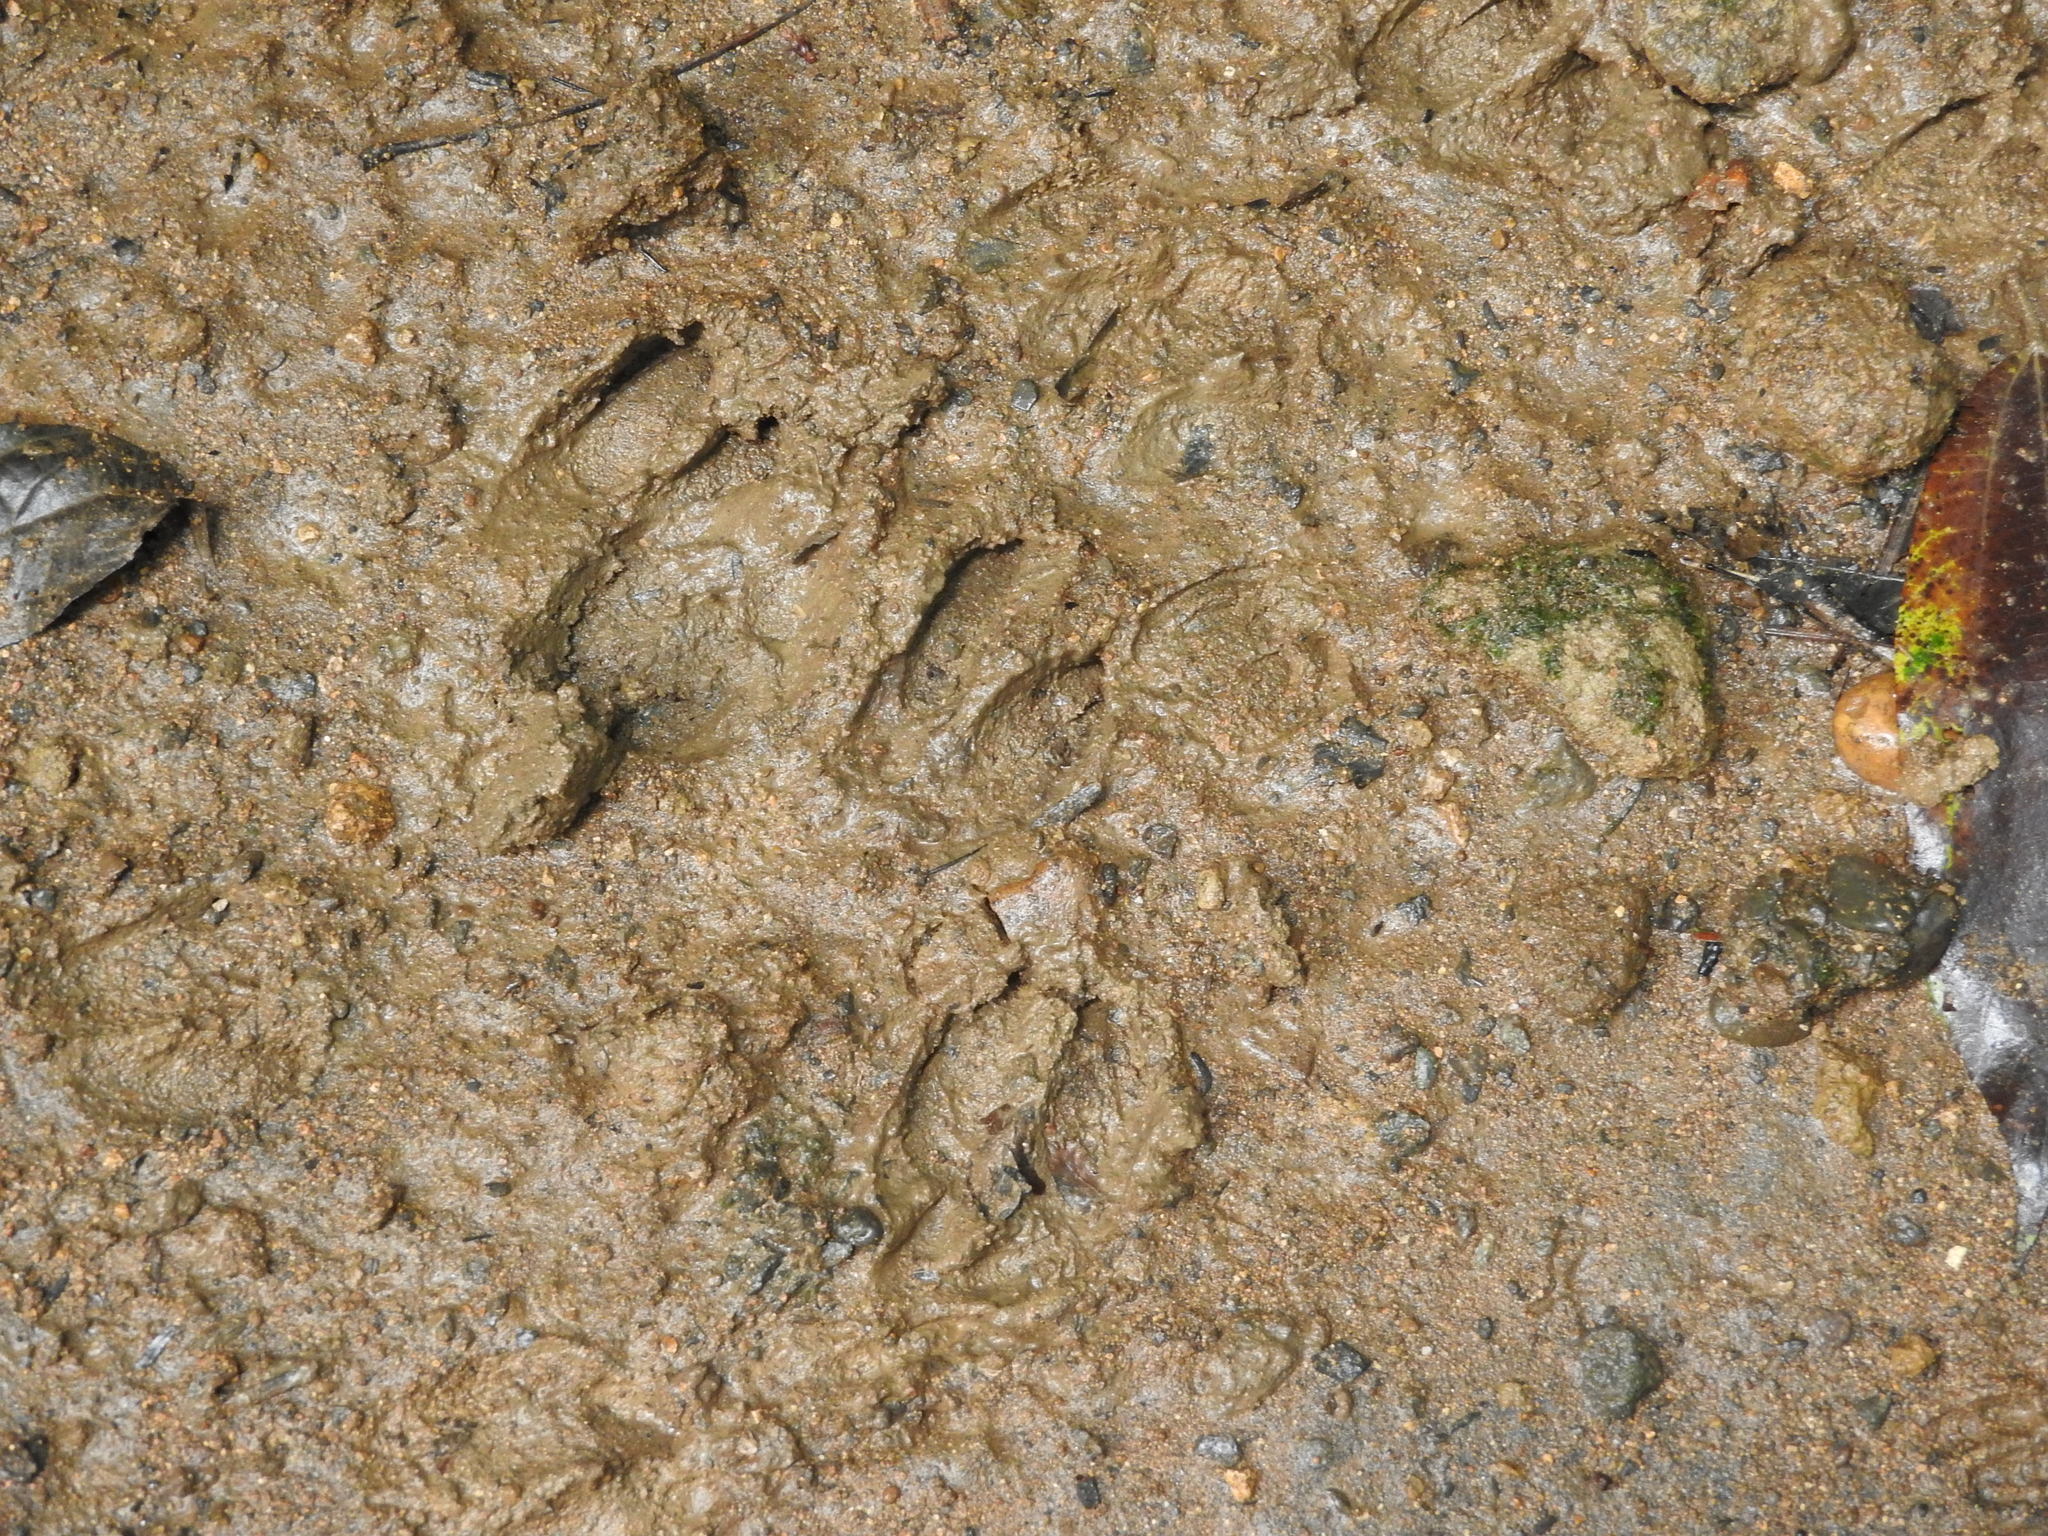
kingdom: Animalia
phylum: Chordata
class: Mammalia
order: Rodentia
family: Dasyproctidae
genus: Dasyprocta
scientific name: Dasyprocta punctata
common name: Central american agouti
